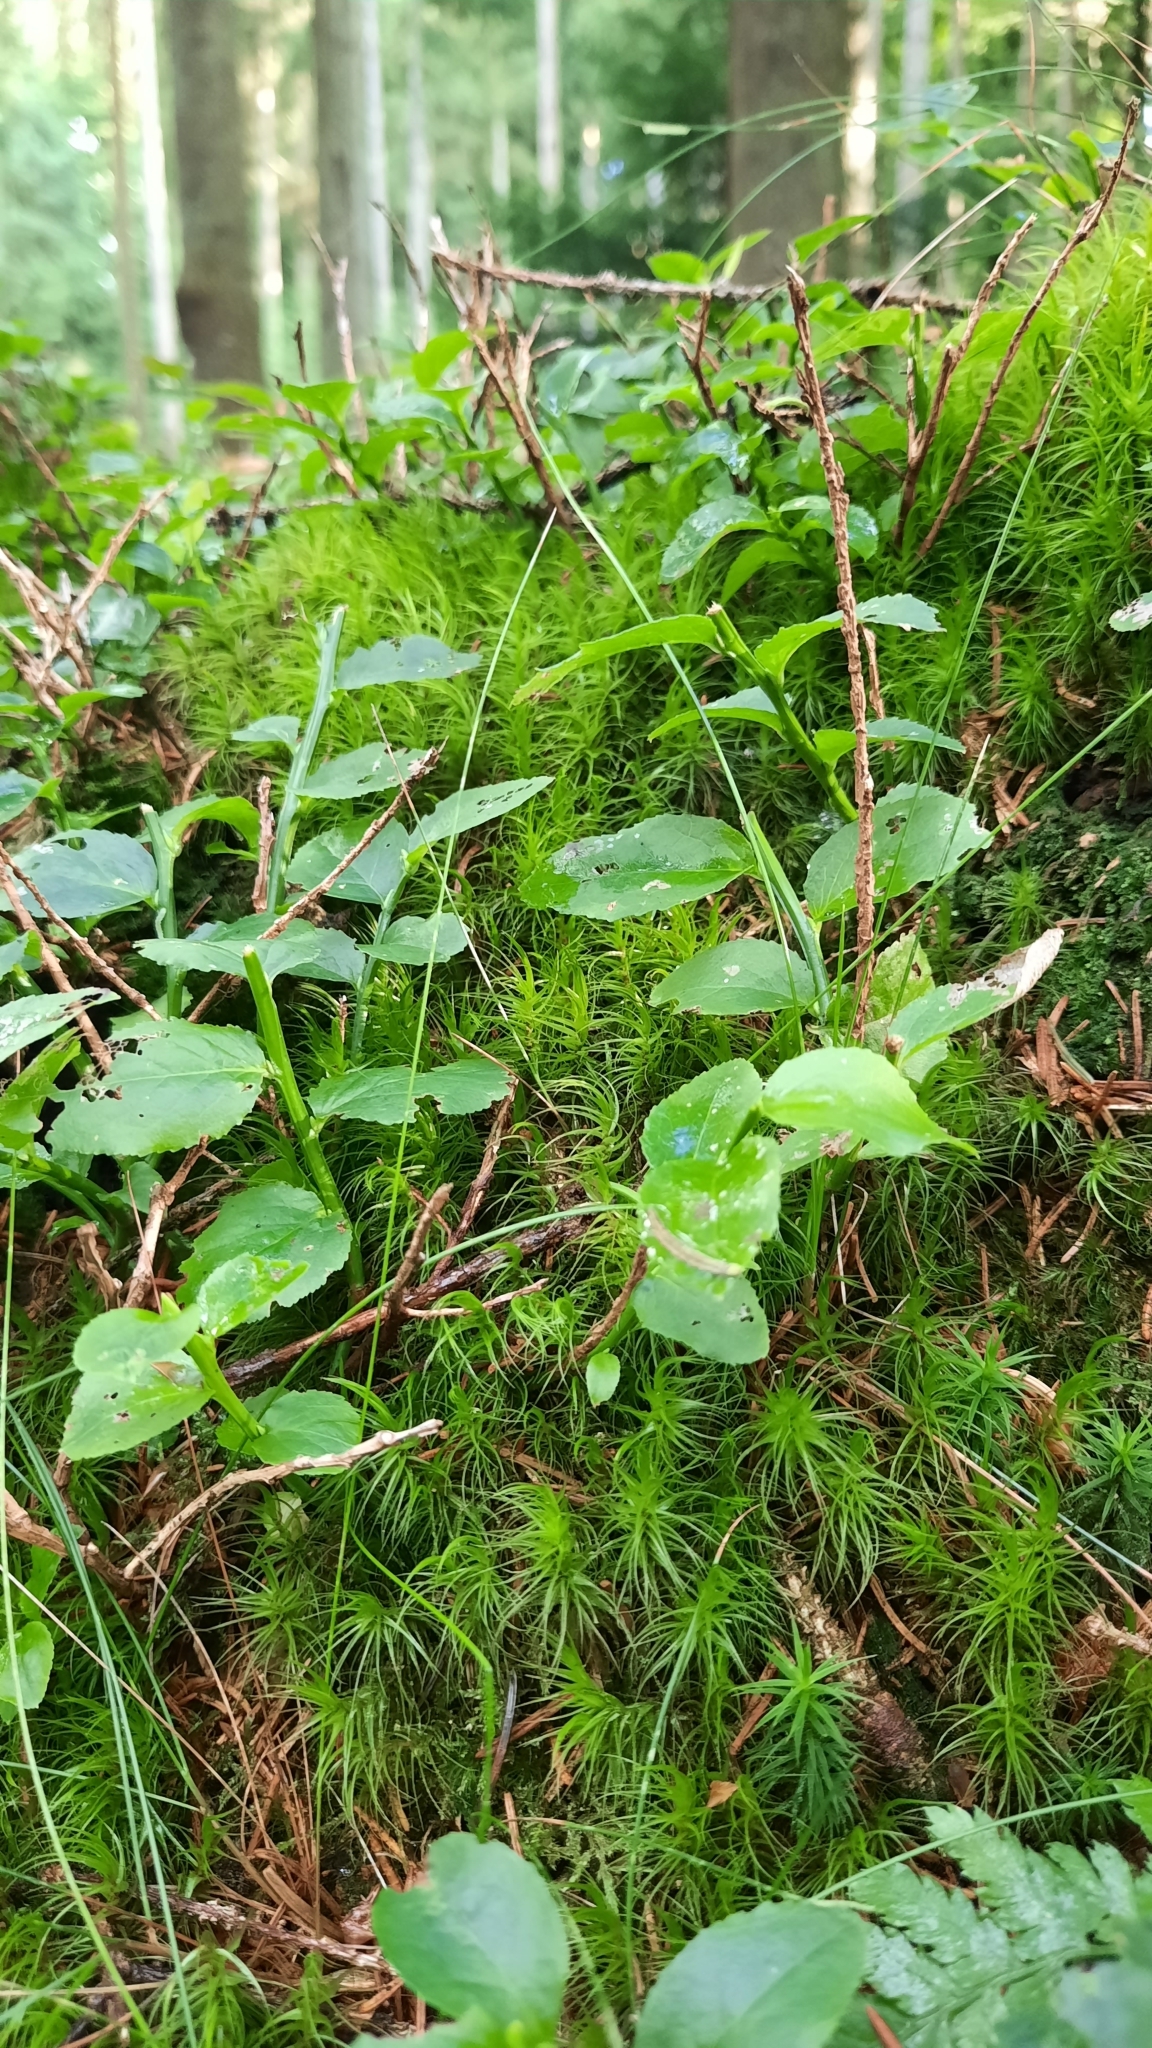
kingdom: Plantae
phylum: Tracheophyta
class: Magnoliopsida
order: Ericales
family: Ericaceae
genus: Vaccinium
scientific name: Vaccinium myrtillus
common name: Bilberry
